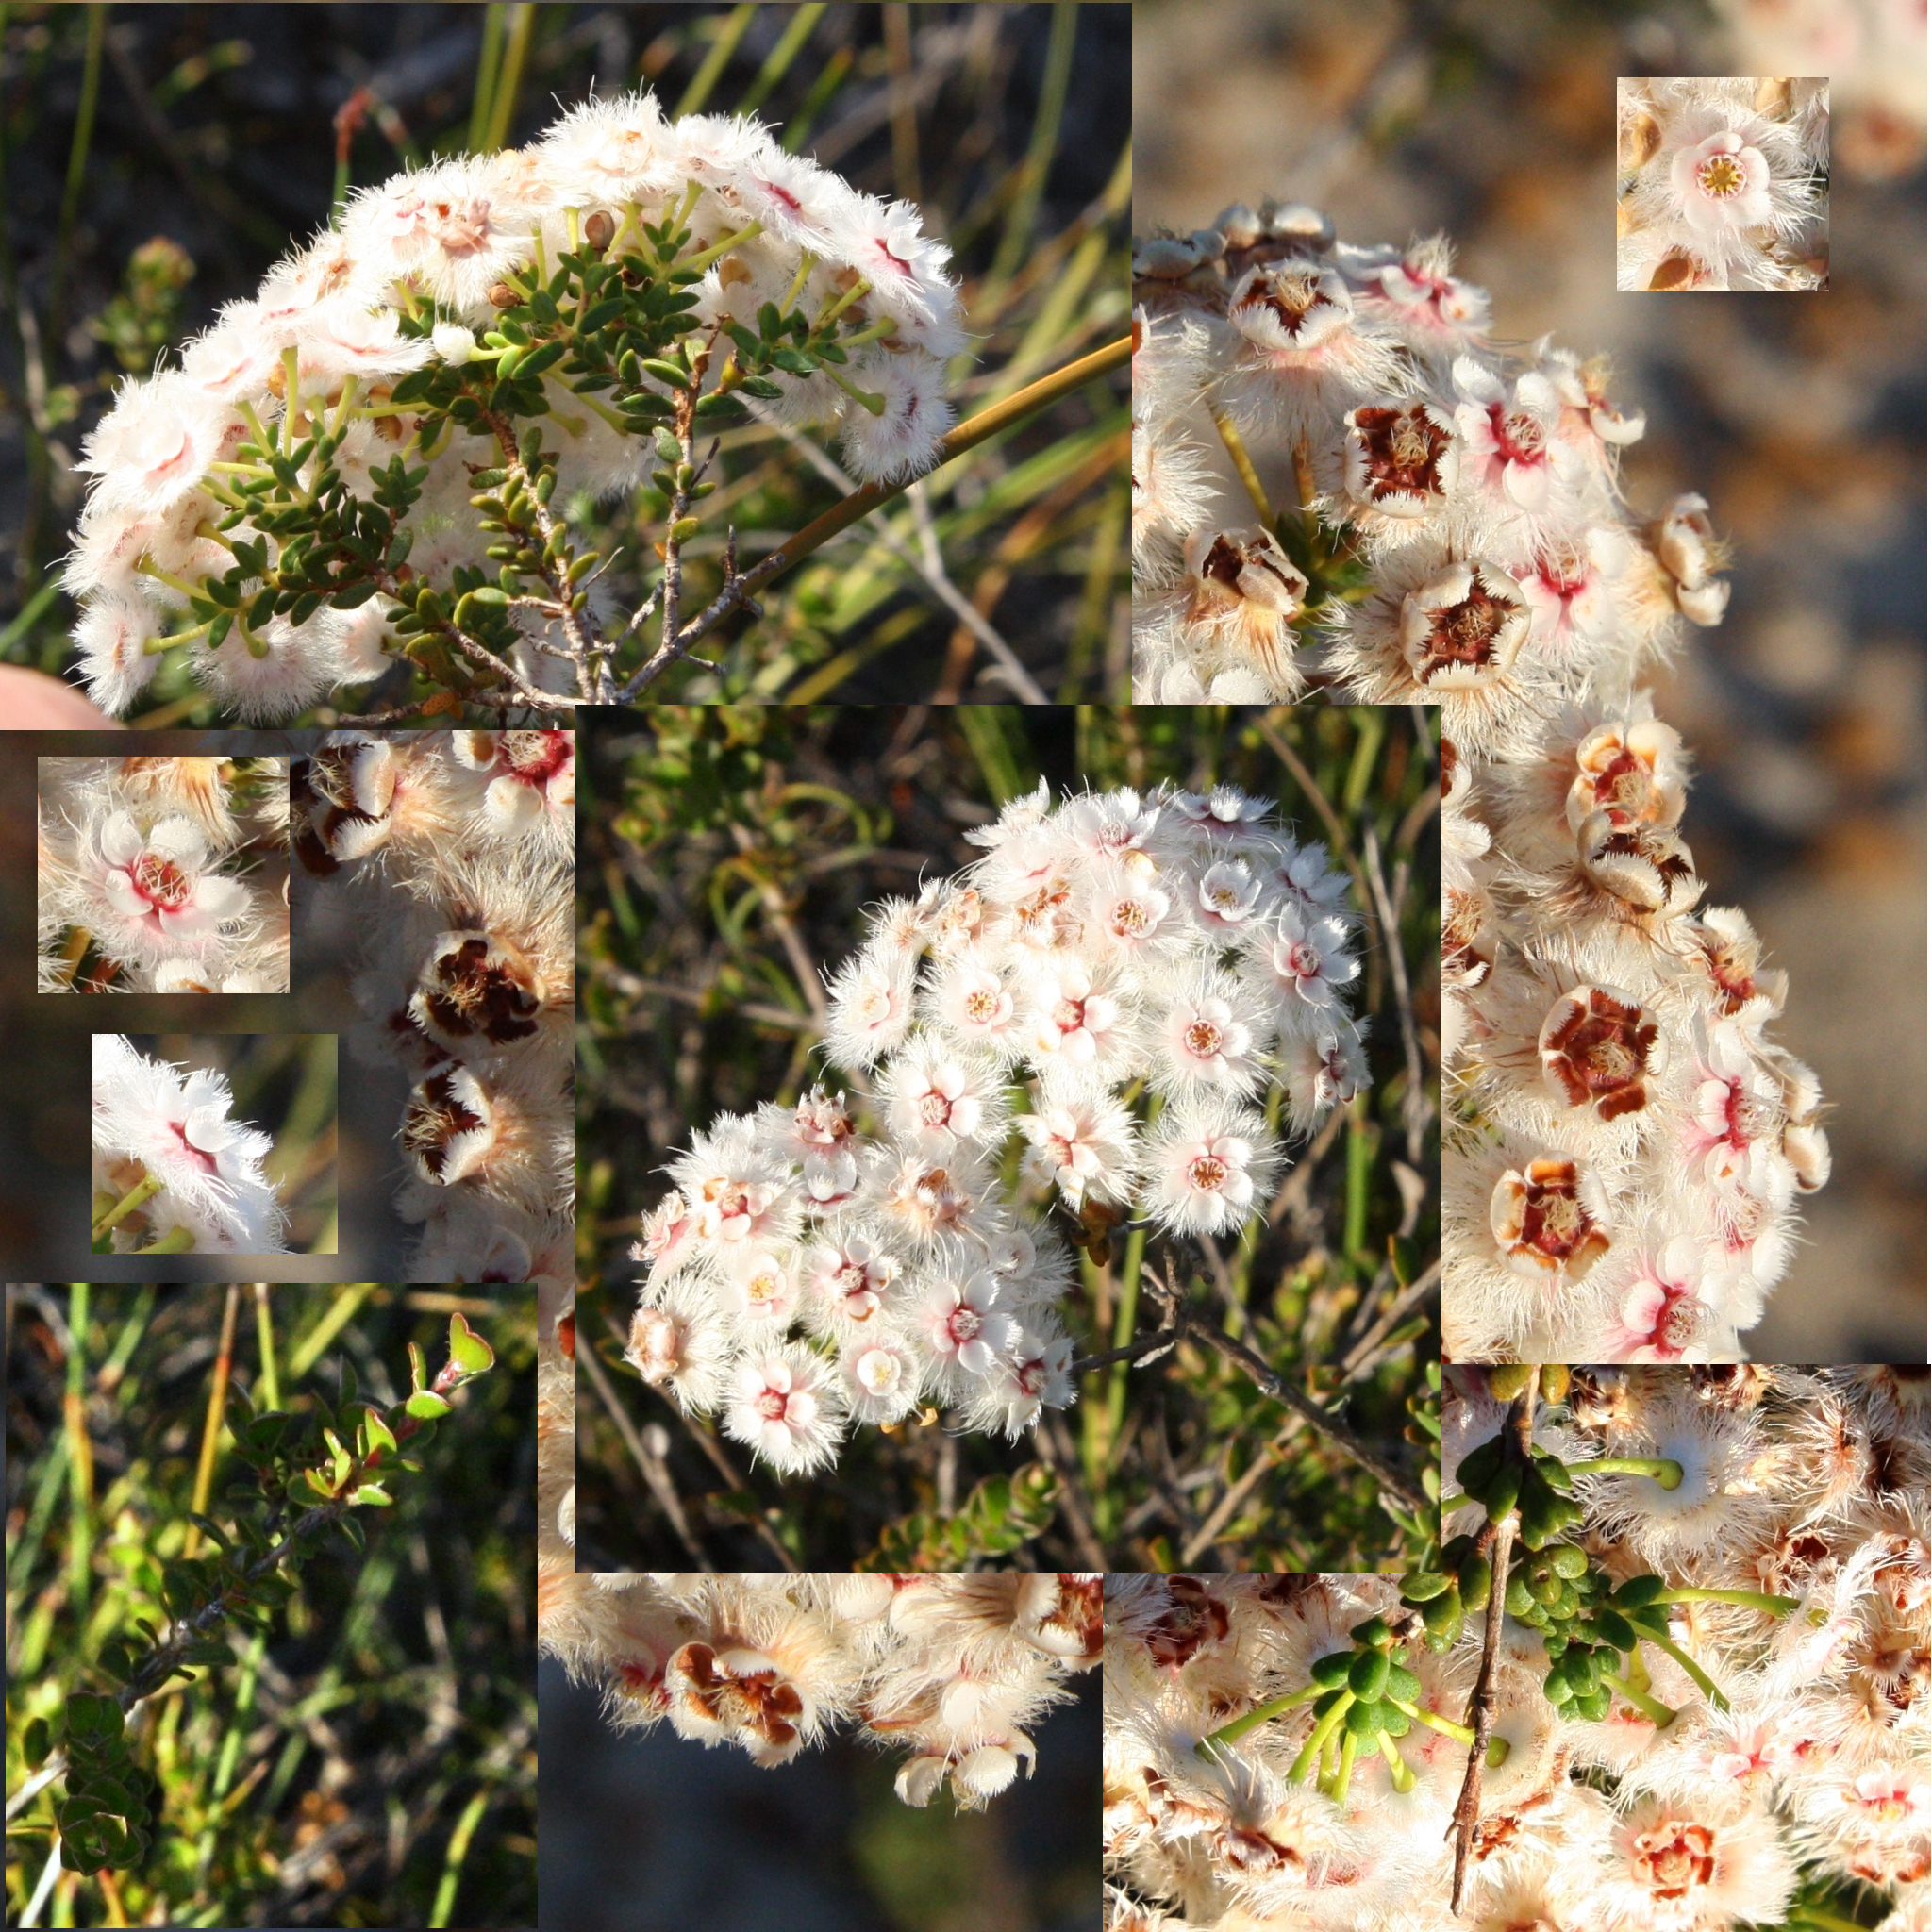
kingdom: Plantae
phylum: Tracheophyta
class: Magnoliopsida
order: Myrtales
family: Myrtaceae
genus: Verticordia
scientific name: Verticordia inclusa
